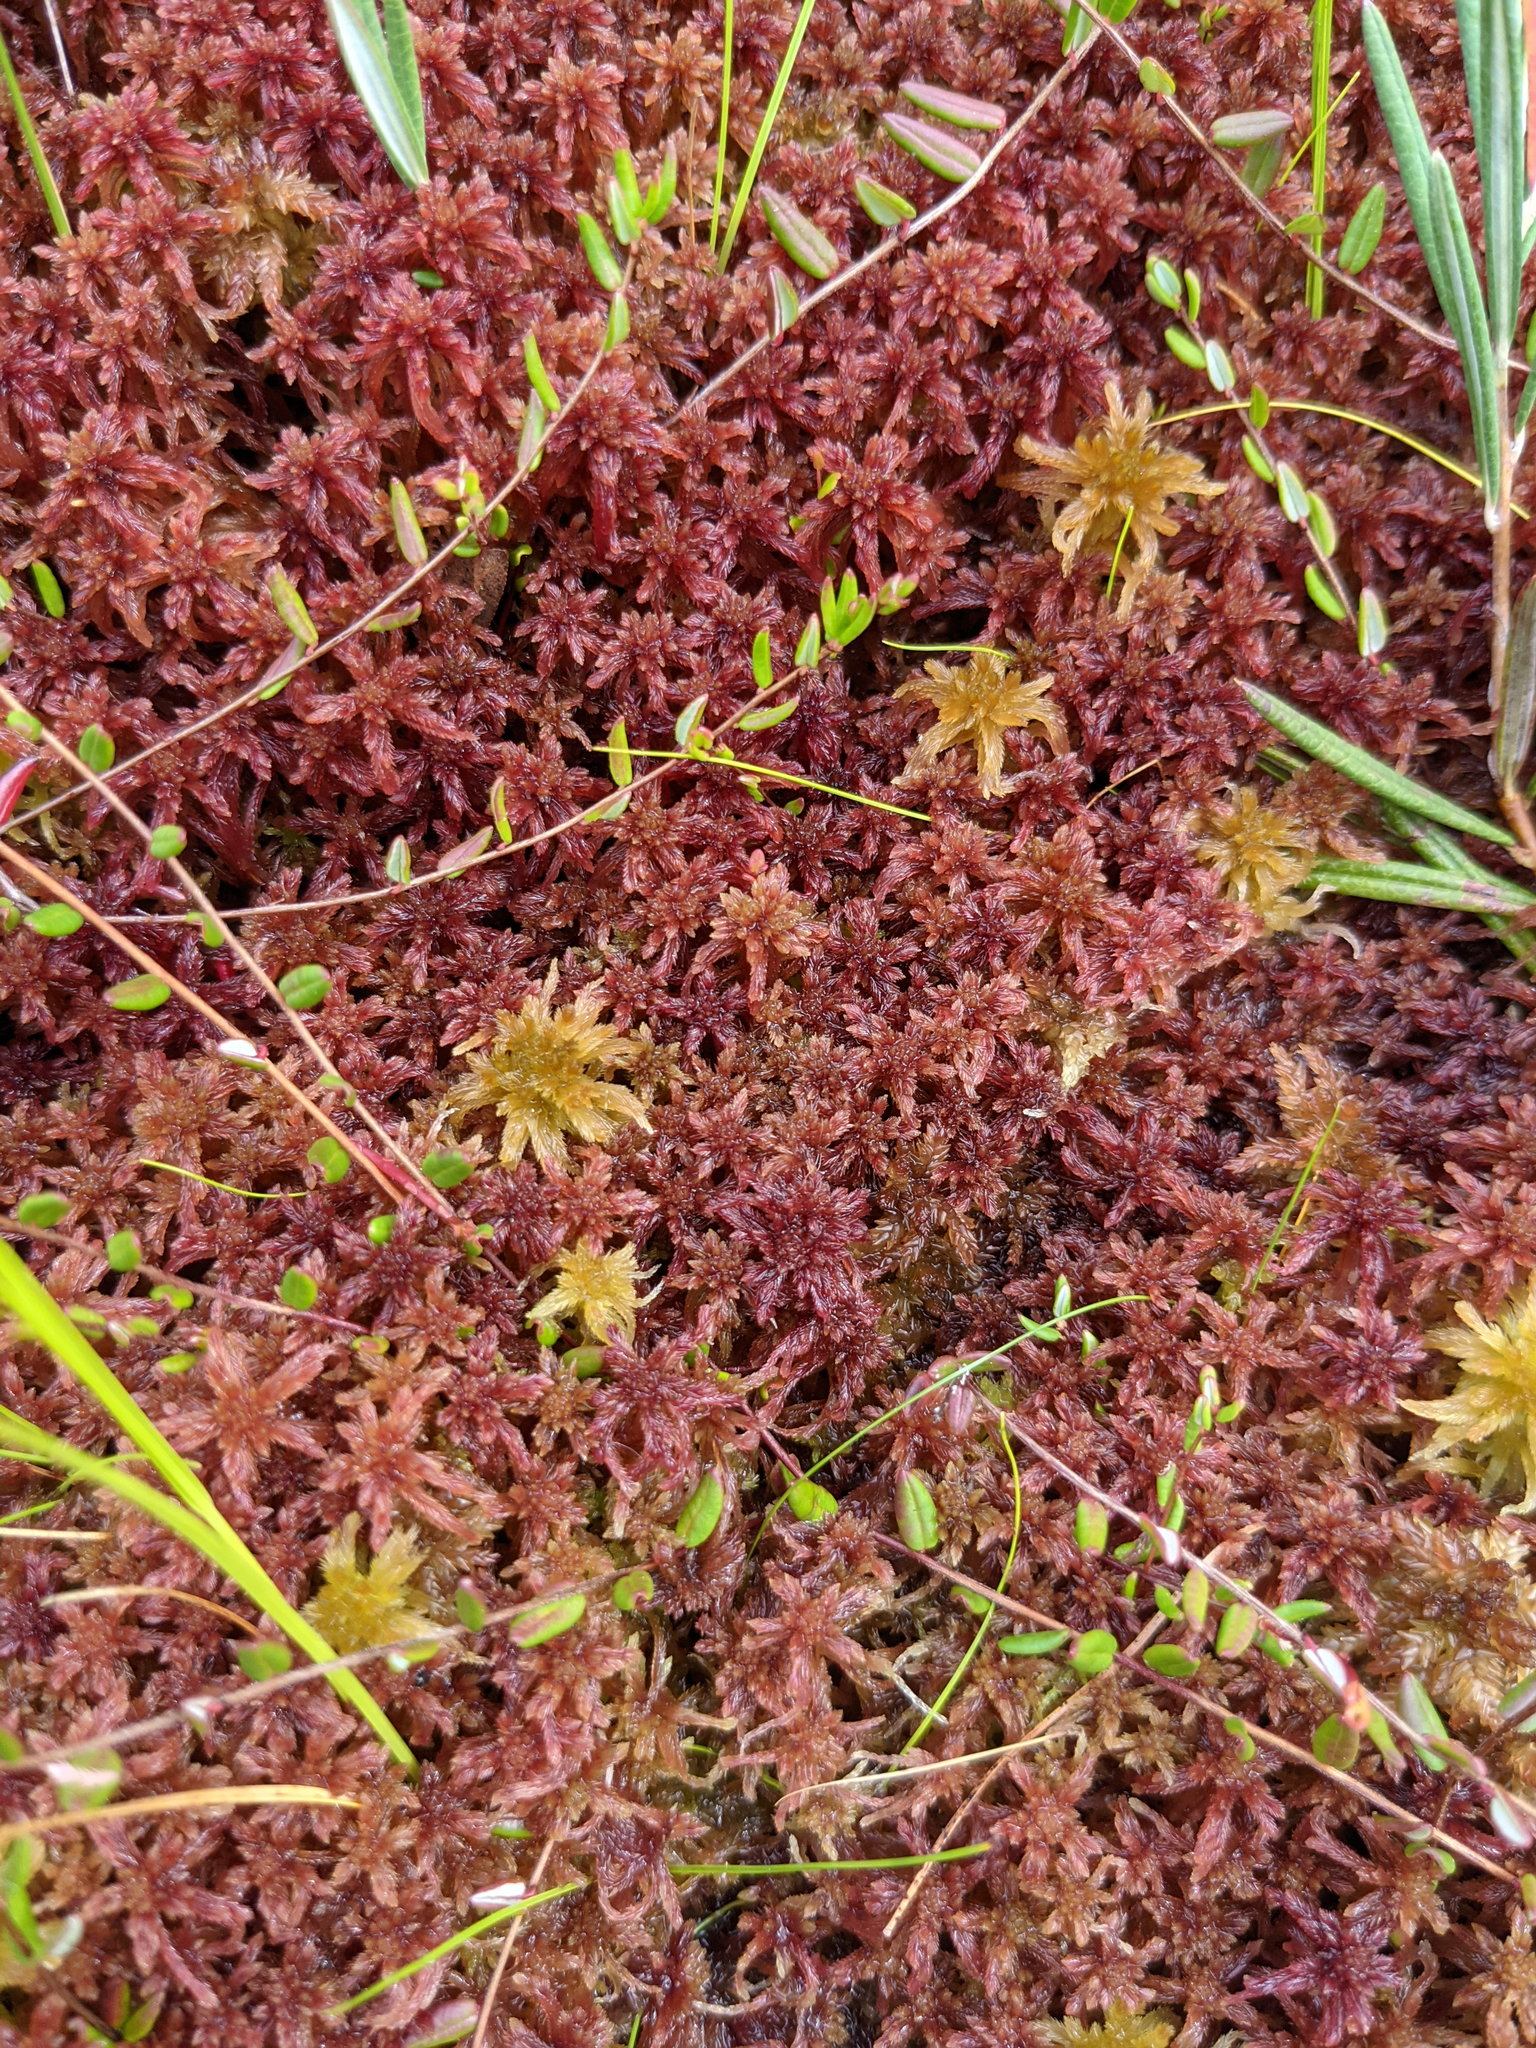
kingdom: Plantae
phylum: Tracheophyta
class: Magnoliopsida
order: Ericales
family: Ericaceae
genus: Vaccinium
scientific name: Vaccinium oxycoccos
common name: Cranberry
